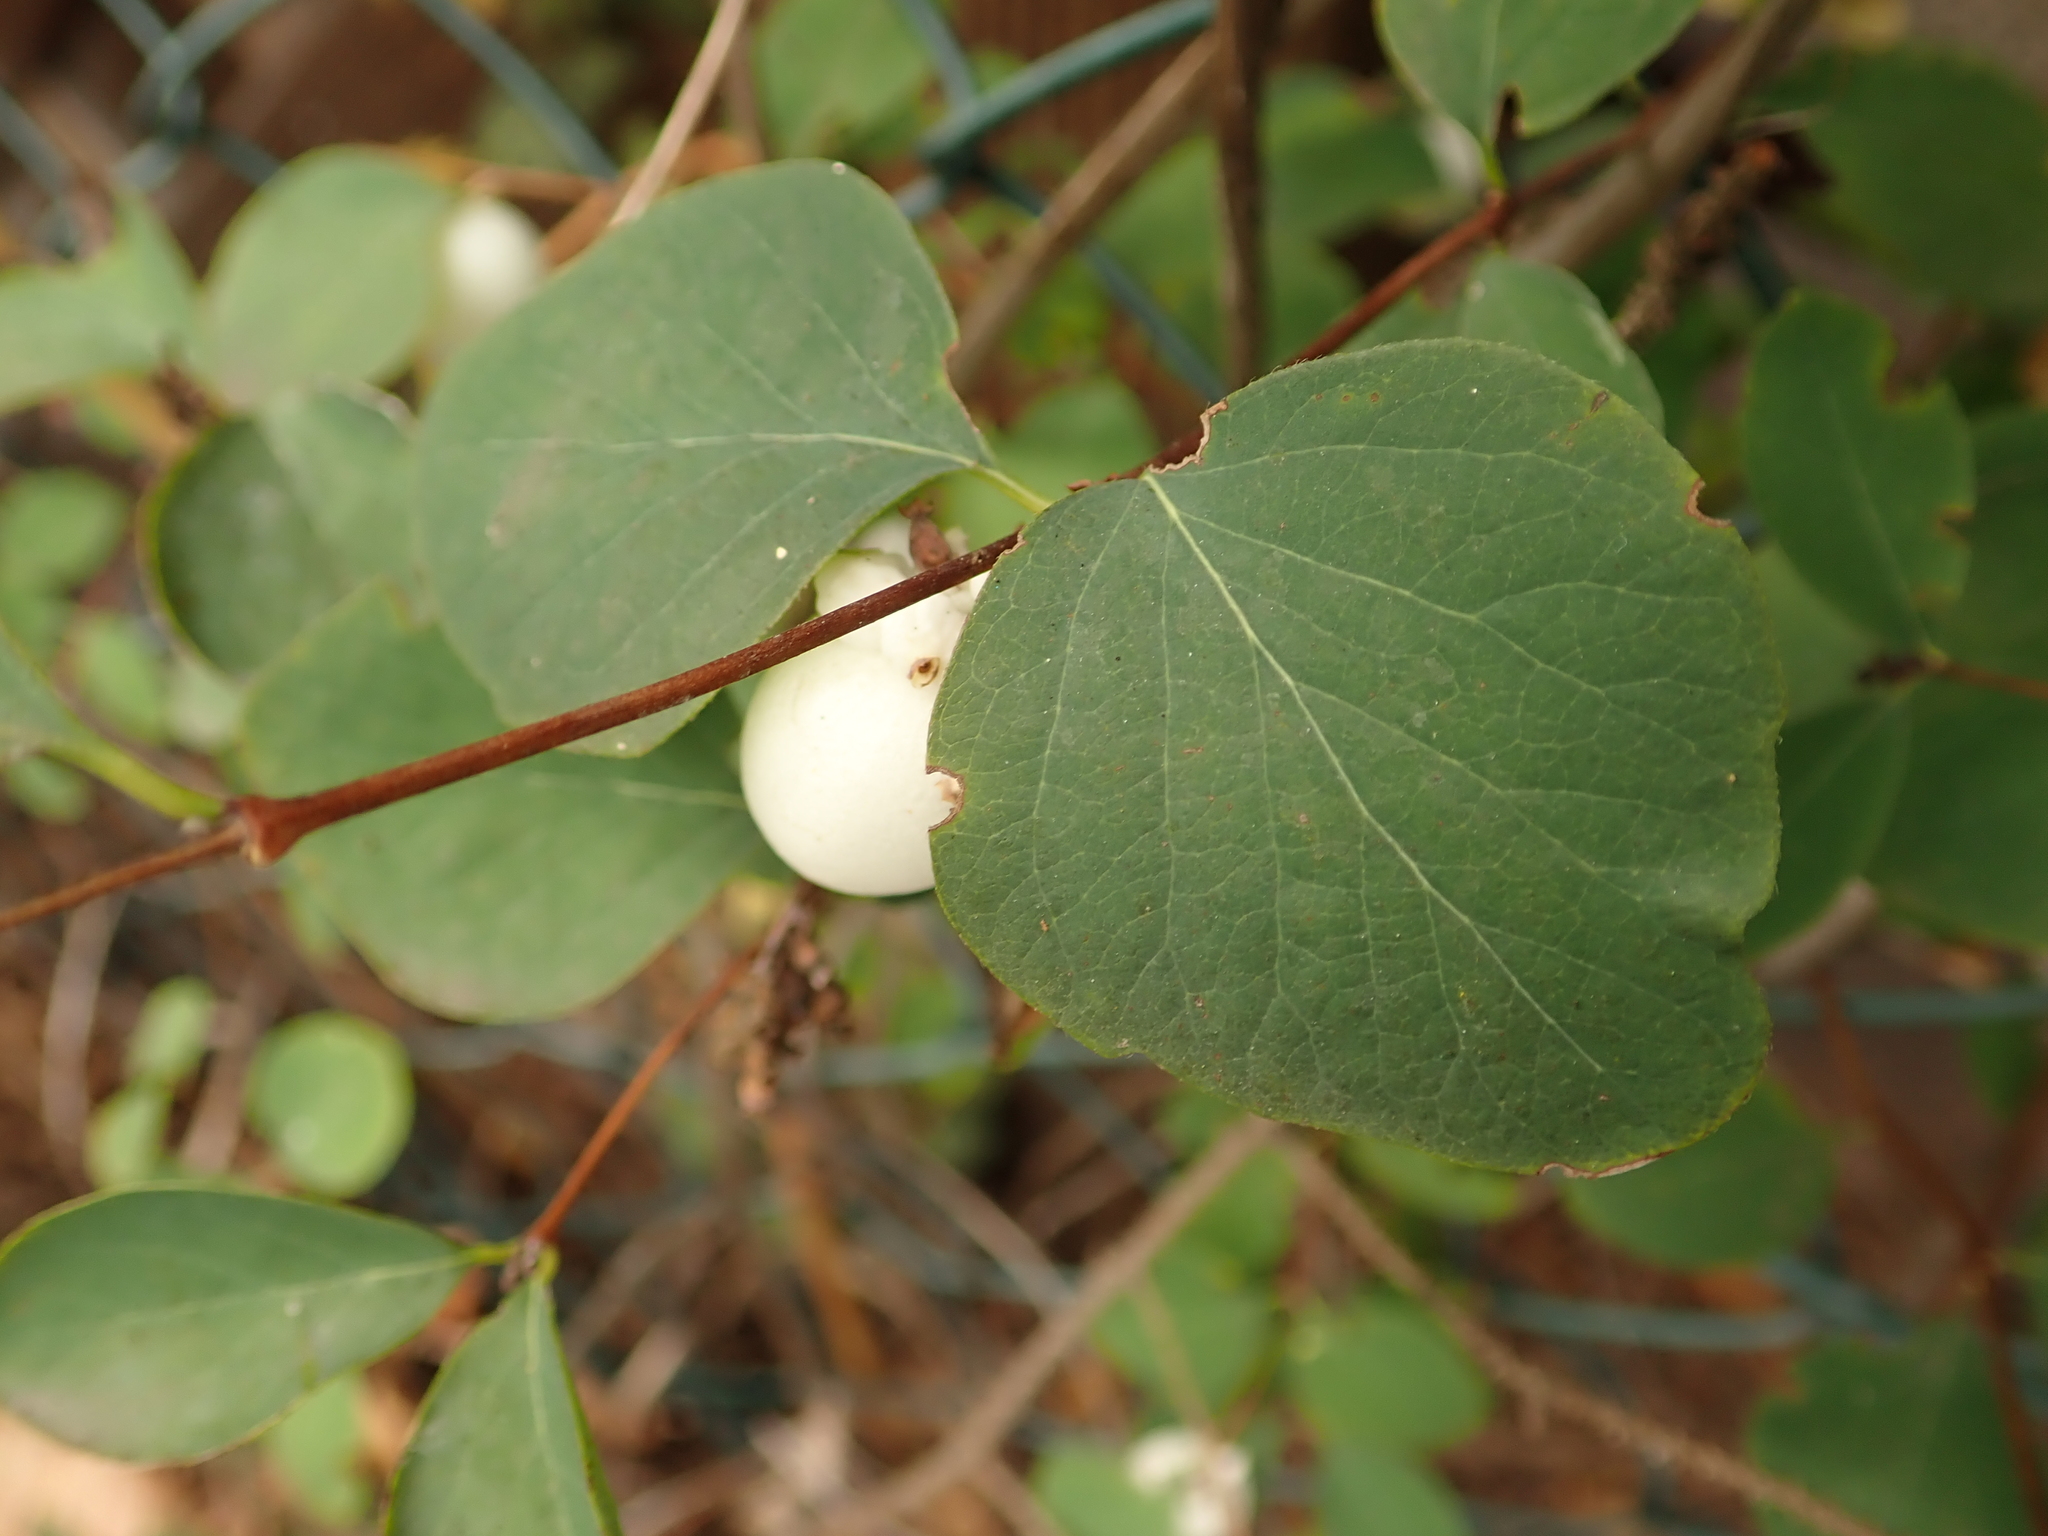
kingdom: Plantae
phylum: Tracheophyta
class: Magnoliopsida
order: Dipsacales
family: Caprifoliaceae
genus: Symphoricarpos
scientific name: Symphoricarpos albus
